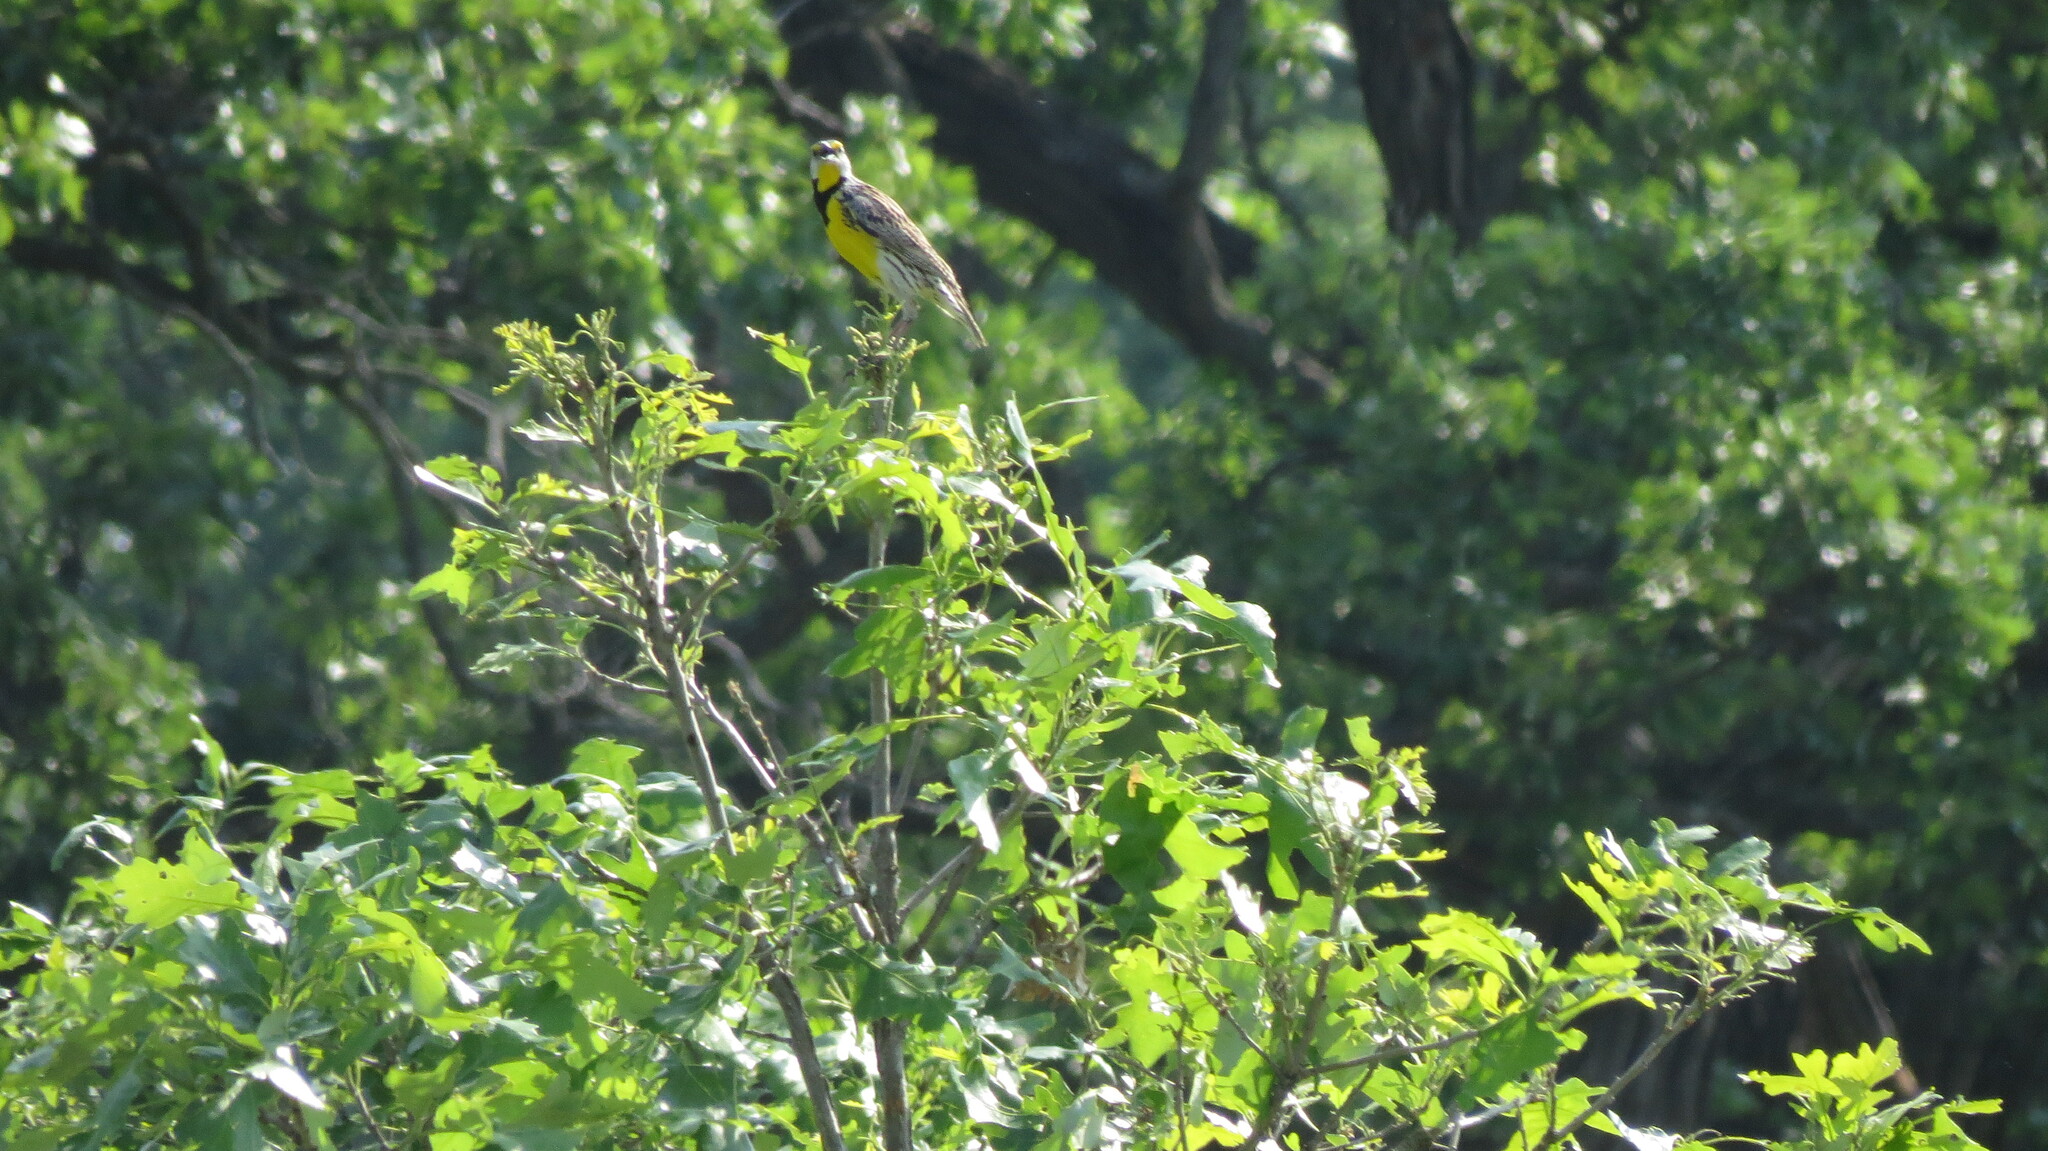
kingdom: Animalia
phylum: Chordata
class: Aves
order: Passeriformes
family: Icteridae
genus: Sturnella
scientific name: Sturnella magna
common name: Eastern meadowlark
